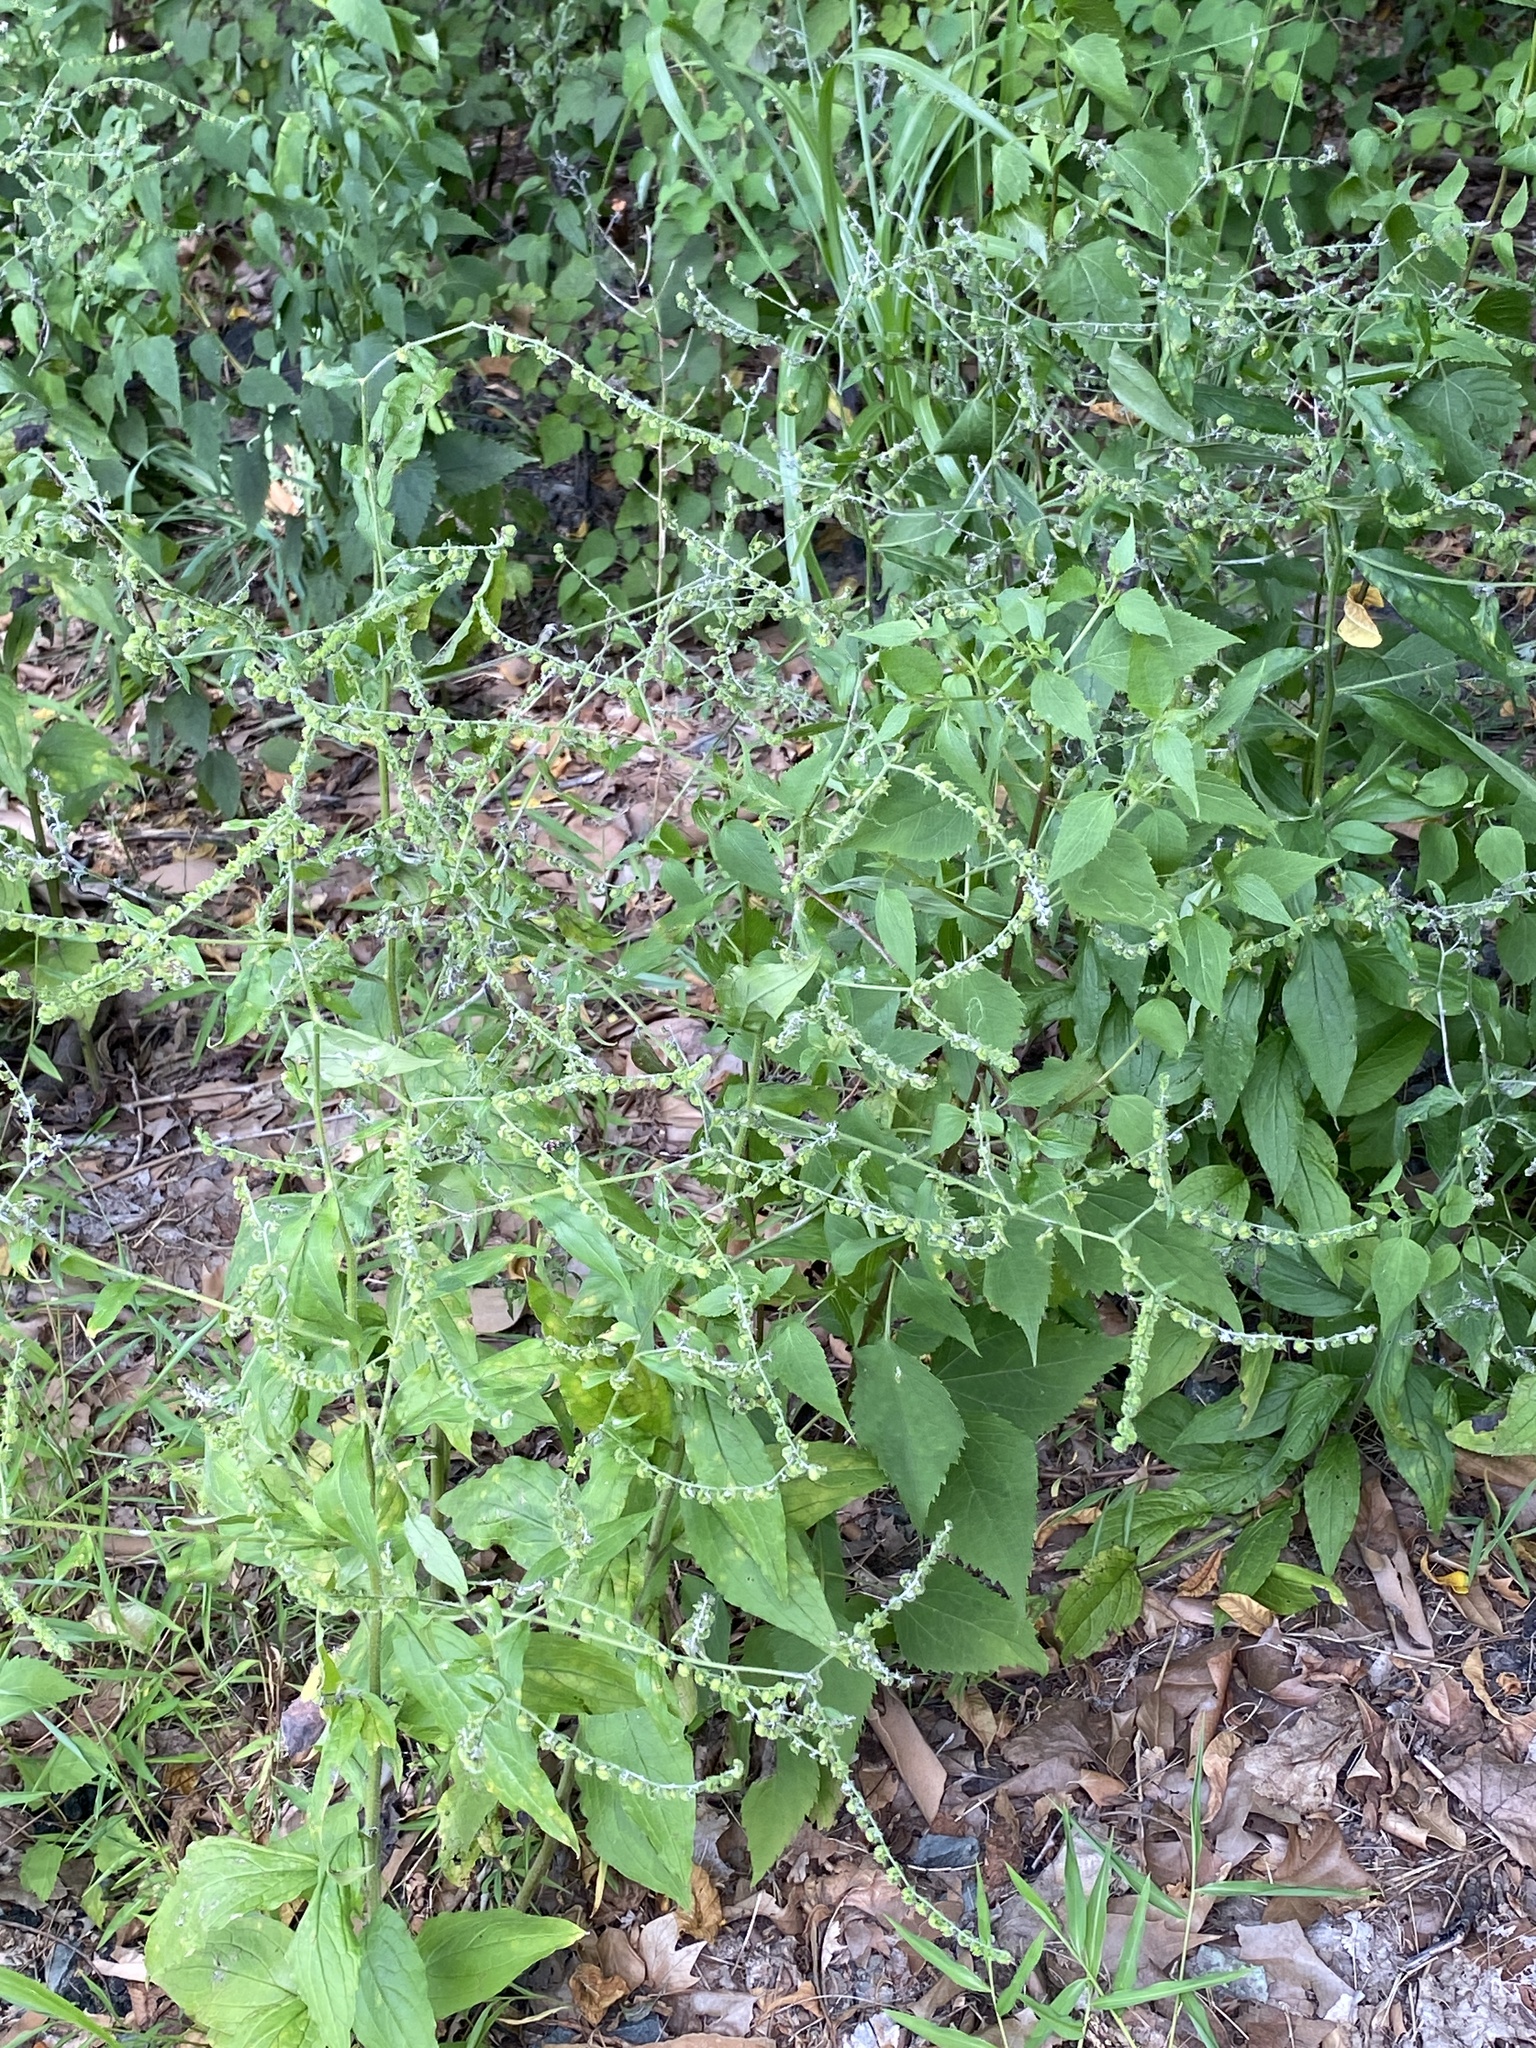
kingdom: Plantae
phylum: Tracheophyta
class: Magnoliopsida
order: Boraginales
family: Boraginaceae
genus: Hackelia
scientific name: Hackelia virginiana
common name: Beggar's-lice
